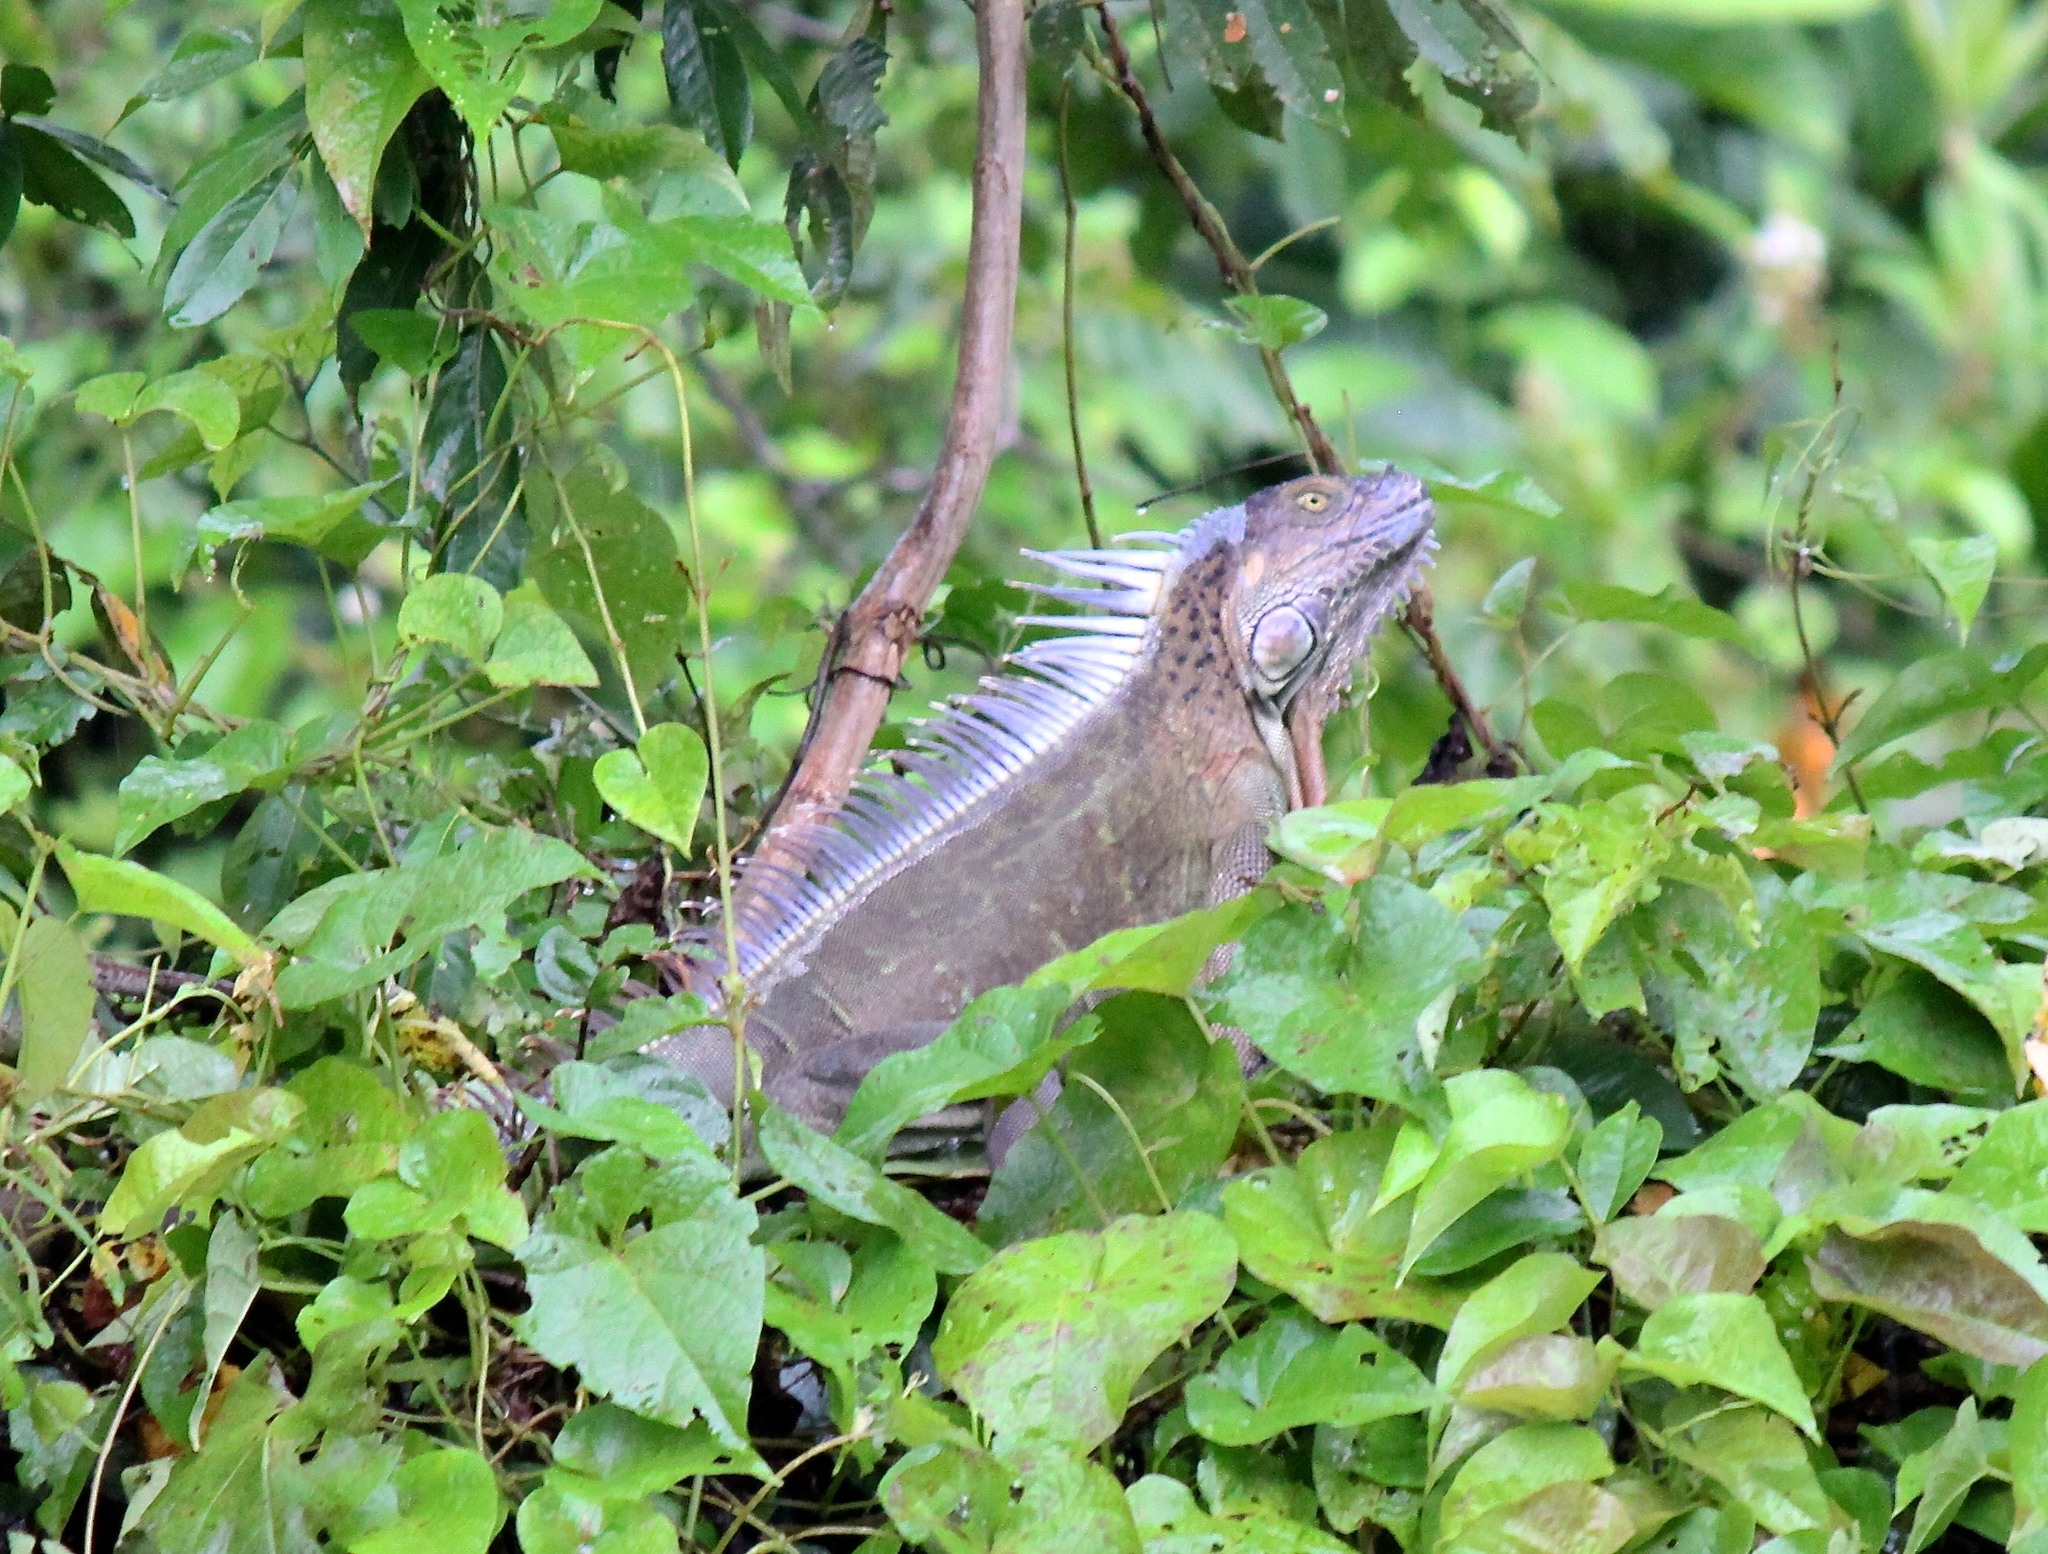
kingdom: Animalia
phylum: Chordata
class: Squamata
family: Iguanidae
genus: Iguana
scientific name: Iguana iguana
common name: Green iguana
